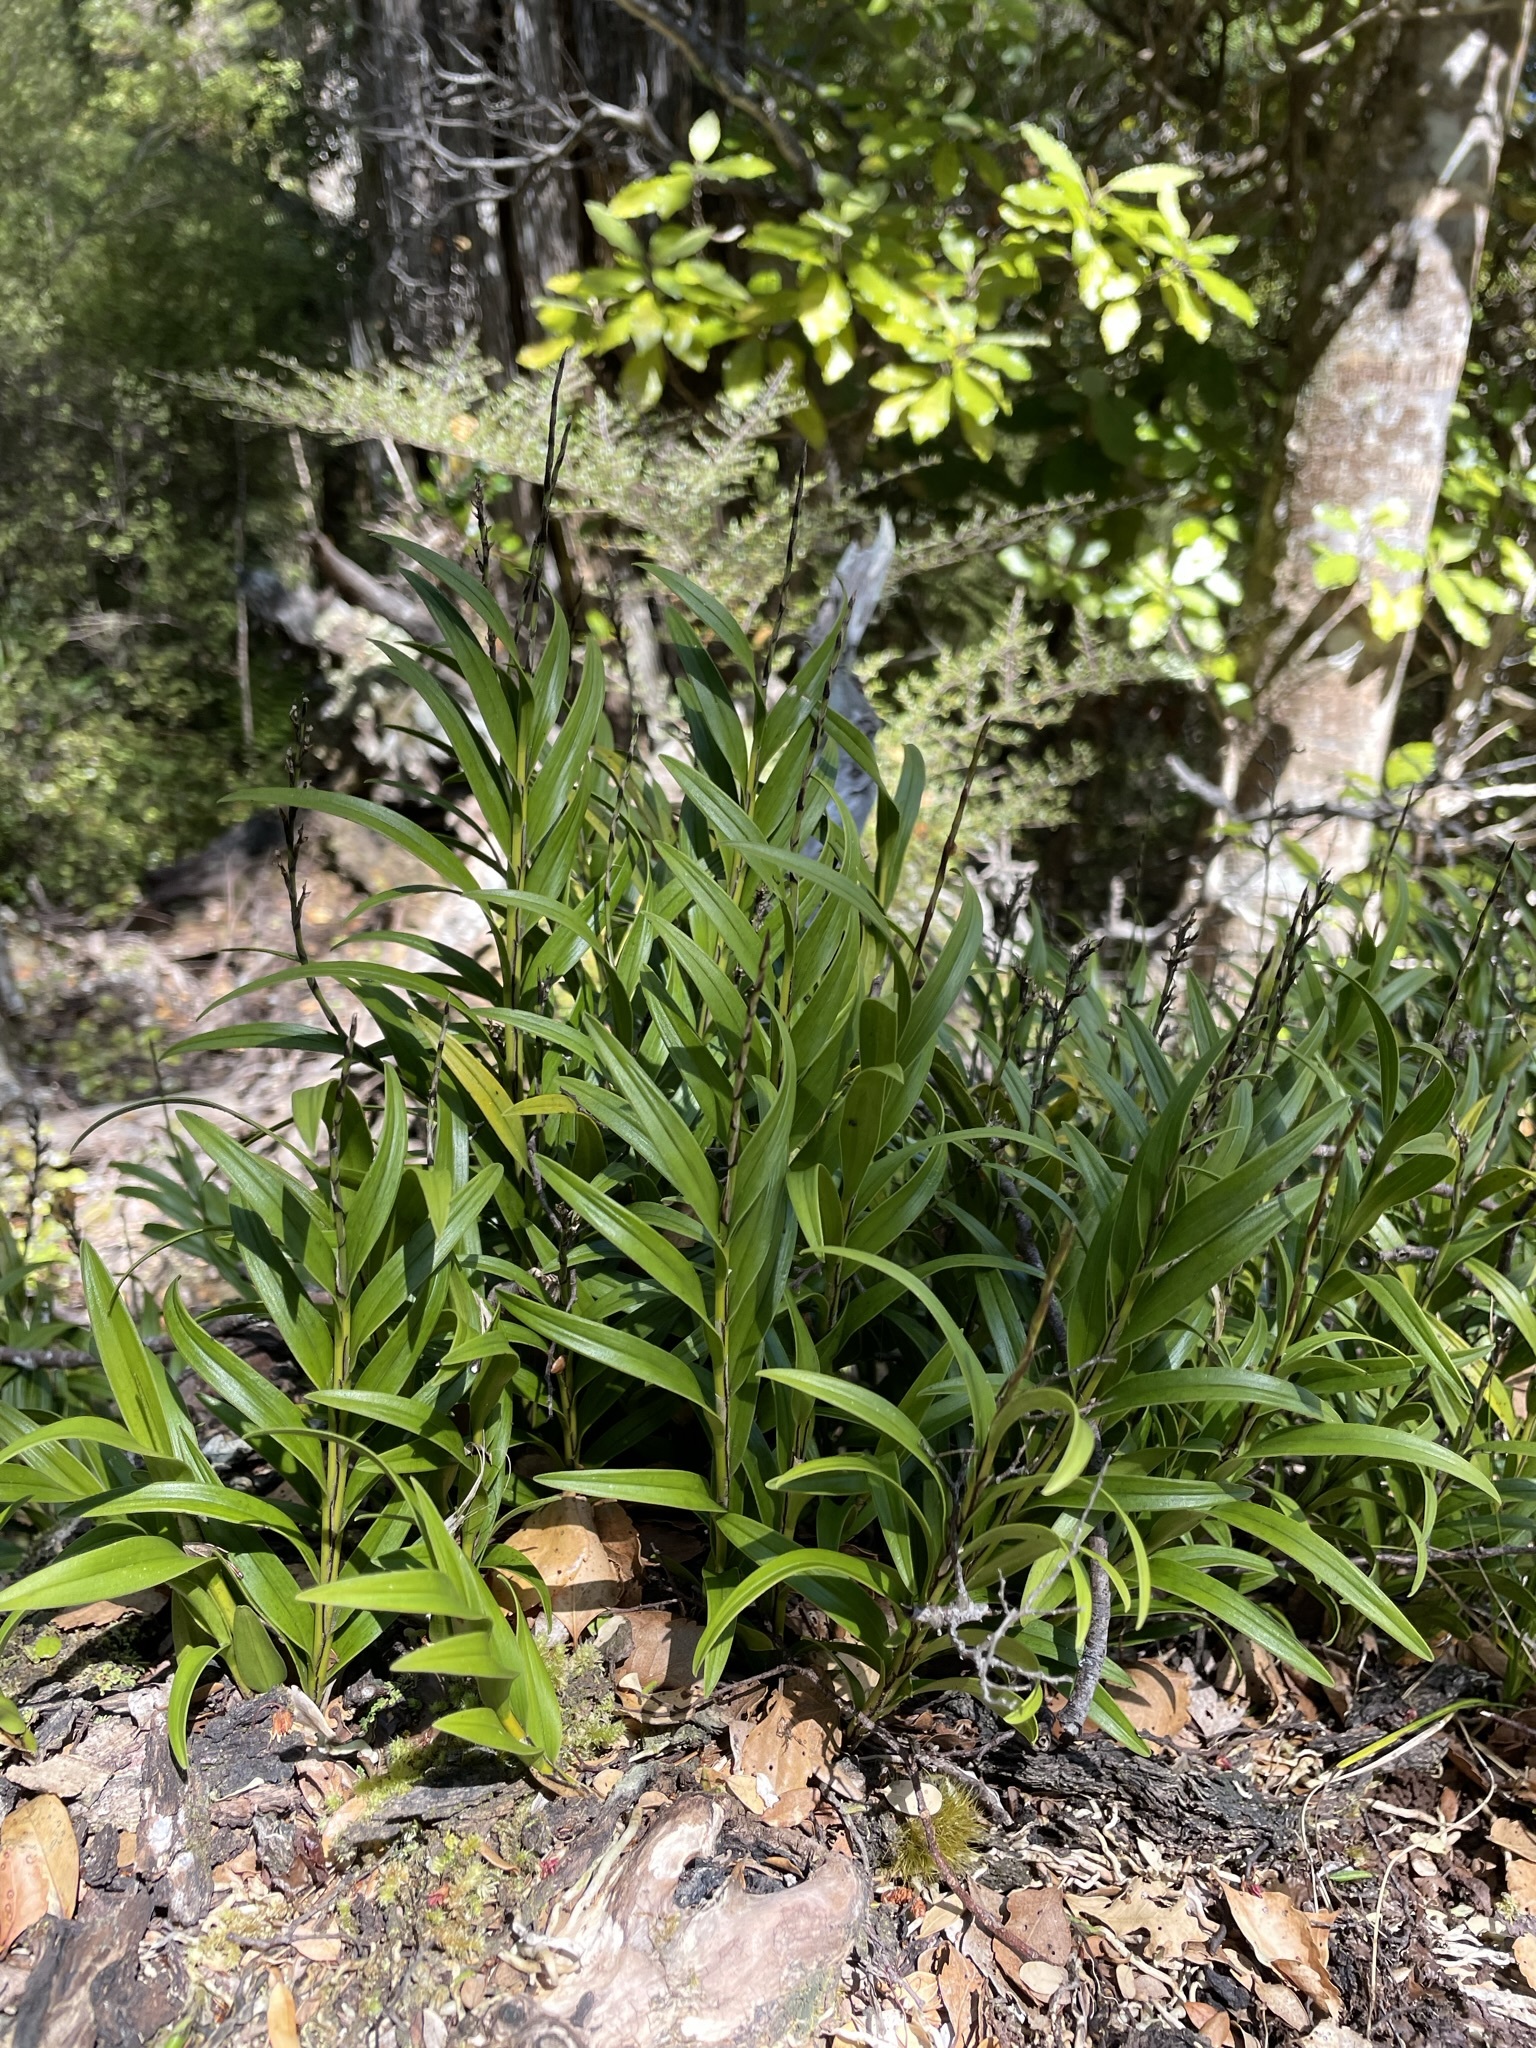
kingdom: Plantae
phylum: Tracheophyta
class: Liliopsida
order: Asparagales
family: Orchidaceae
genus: Earina
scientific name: Earina autumnalis
